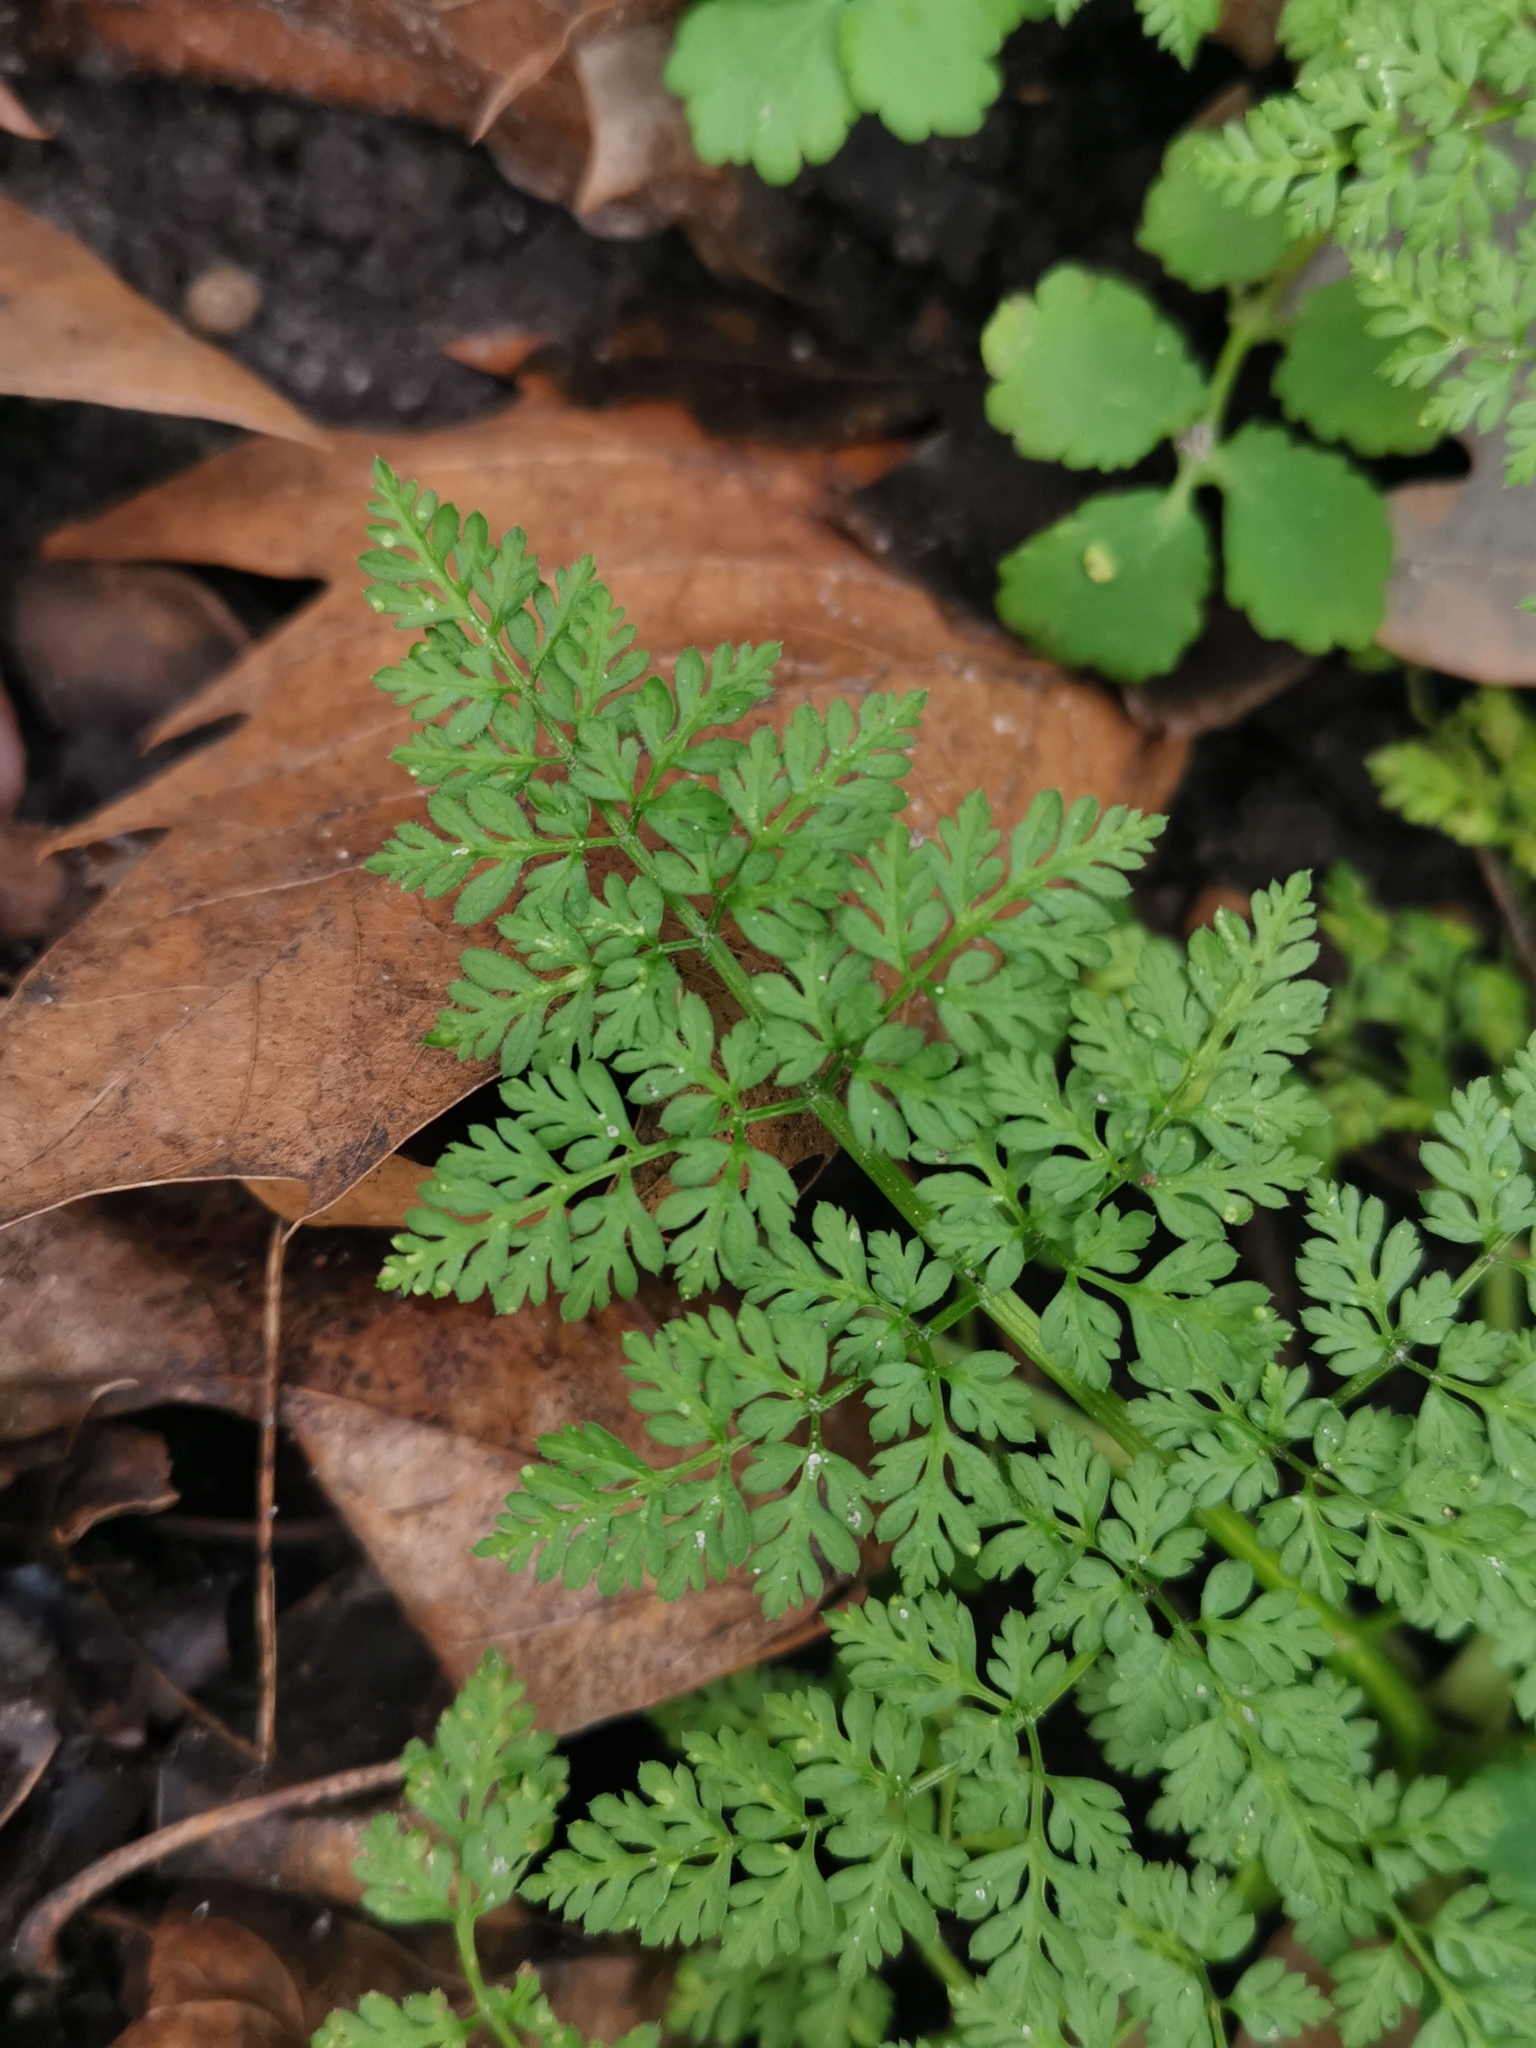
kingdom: Plantae
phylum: Tracheophyta
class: Magnoliopsida
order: Apiales
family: Apiaceae
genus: Anthriscus
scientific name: Anthriscus caucalis
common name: Bur chervil
